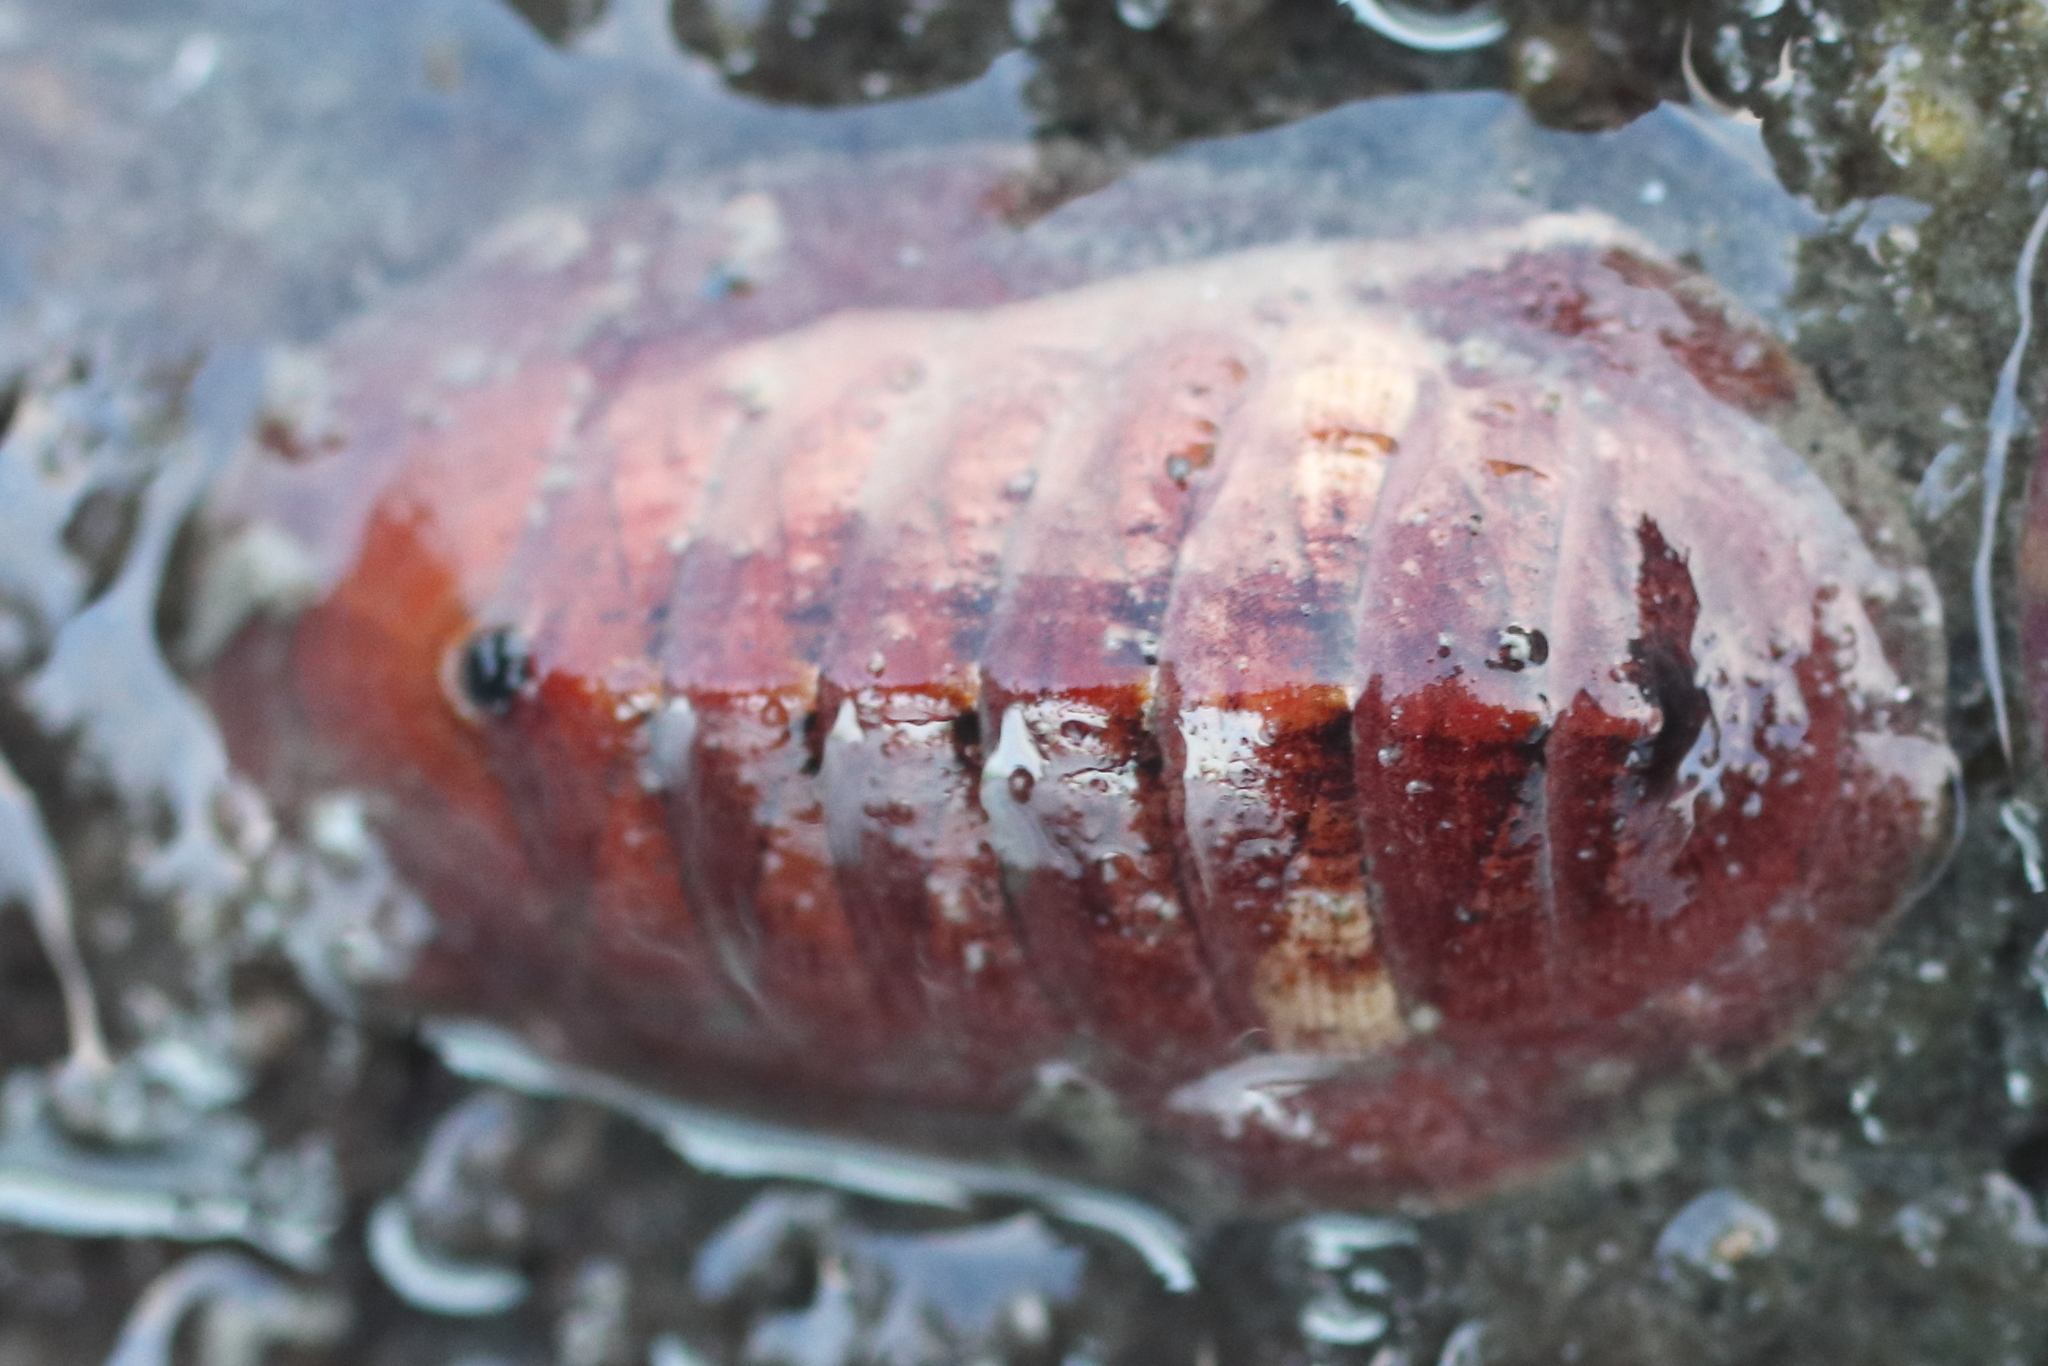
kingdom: Animalia
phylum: Mollusca
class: Polyplacophora
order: Chitonida
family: Ischnochitonidae
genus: Lepidozona
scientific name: Lepidozona mertensii
